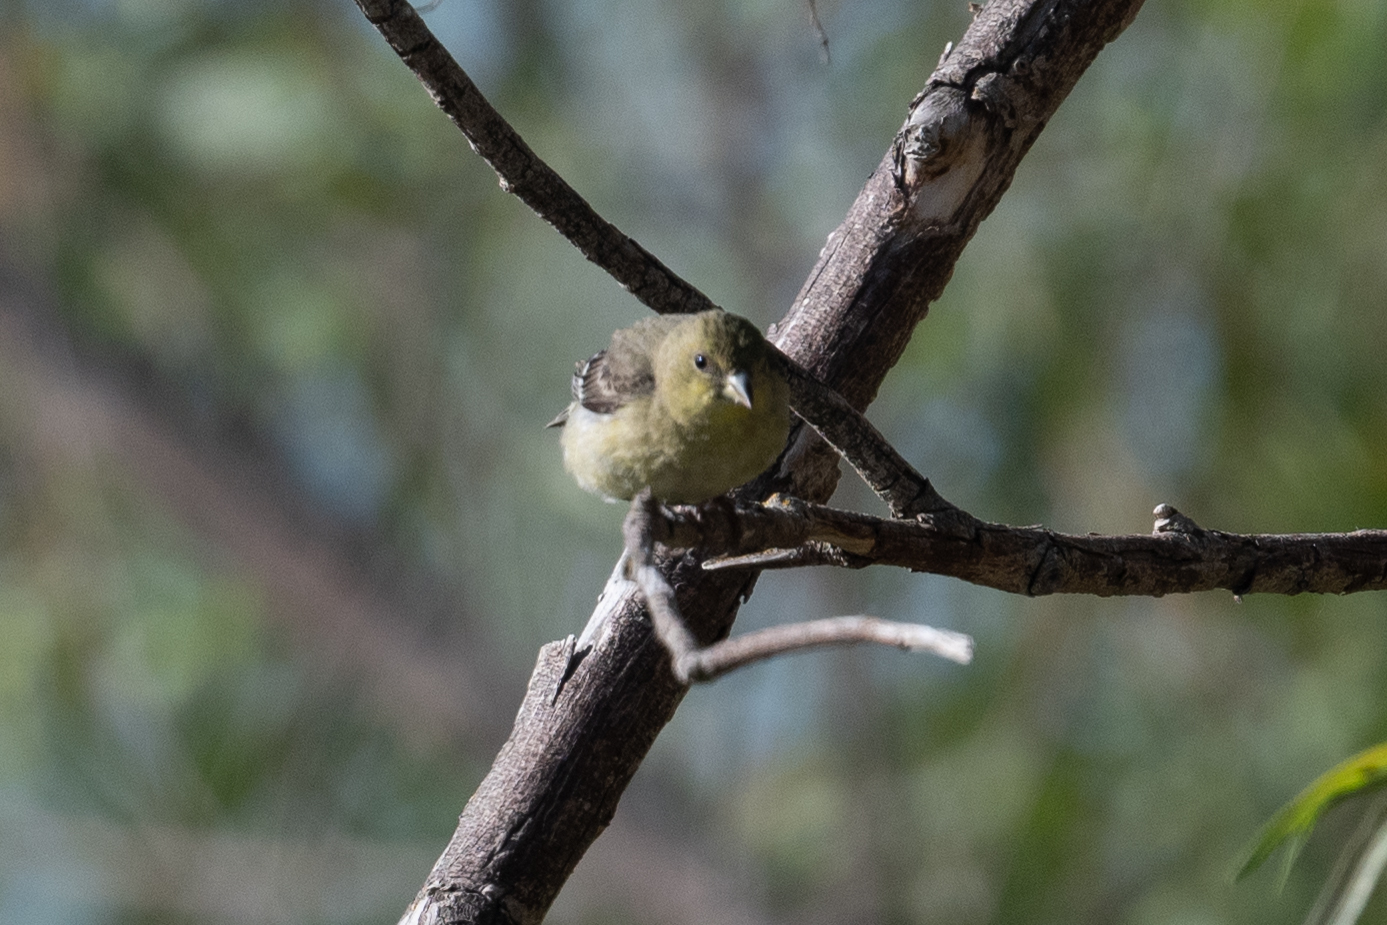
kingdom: Animalia
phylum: Chordata
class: Aves
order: Passeriformes
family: Fringillidae
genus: Spinus
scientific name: Spinus psaltria
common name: Lesser goldfinch
